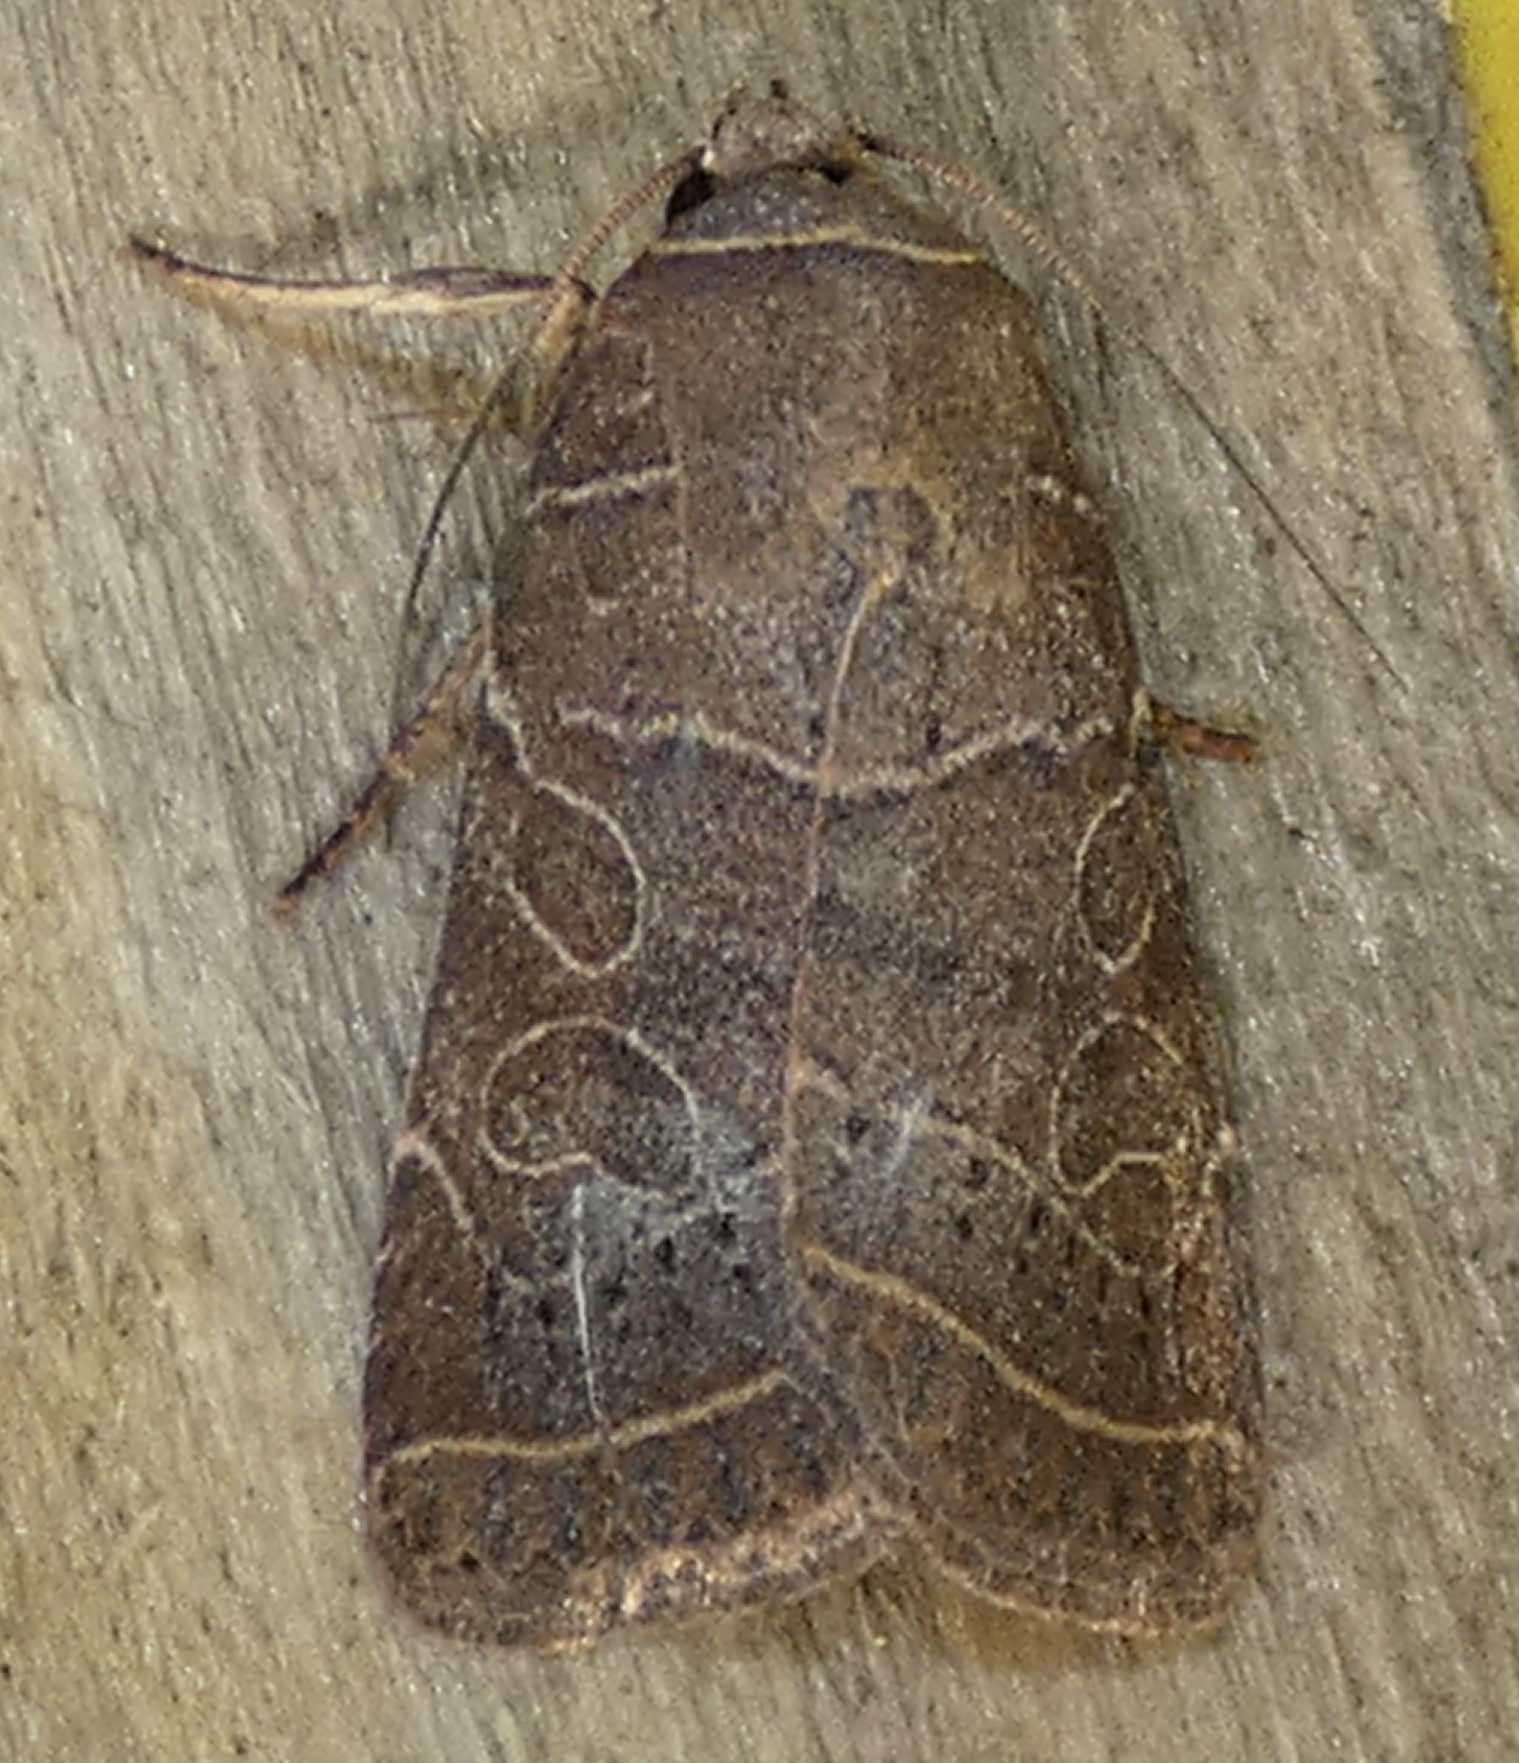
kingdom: Animalia
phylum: Arthropoda
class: Insecta
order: Lepidoptera
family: Noctuidae
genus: Orthodes
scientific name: Orthodes majuscula
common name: Rustic quaker
